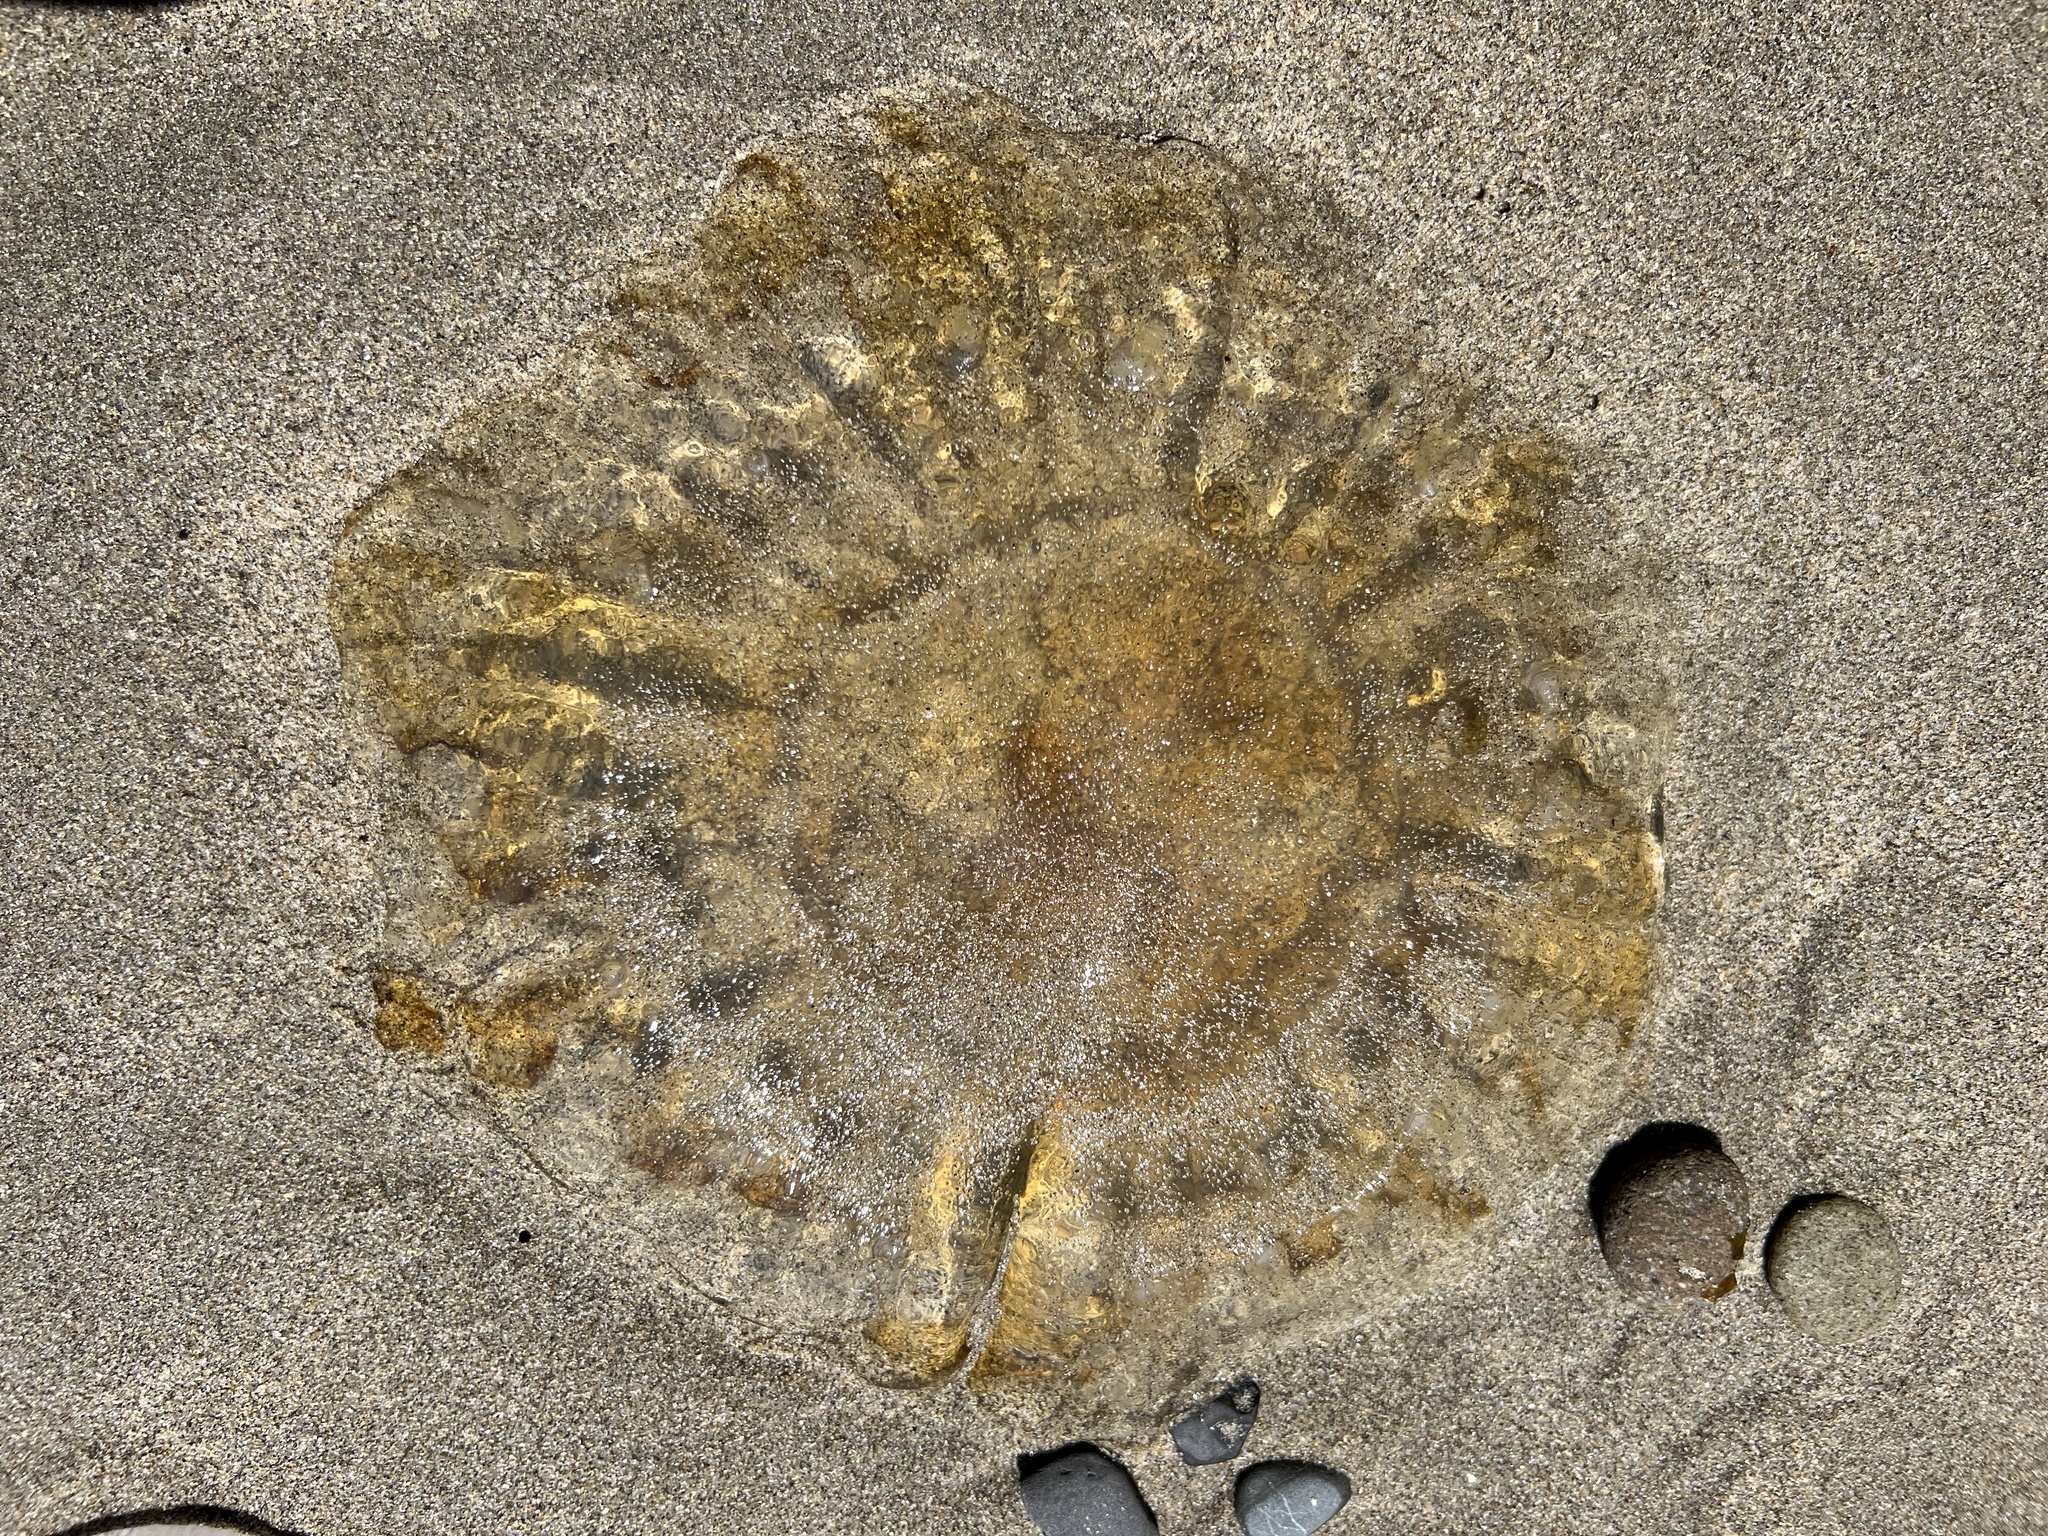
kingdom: Animalia
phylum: Cnidaria
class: Scyphozoa
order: Semaeostomeae
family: Pelagiidae
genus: Chrysaora
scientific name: Chrysaora fuscescens
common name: Sea nettle
